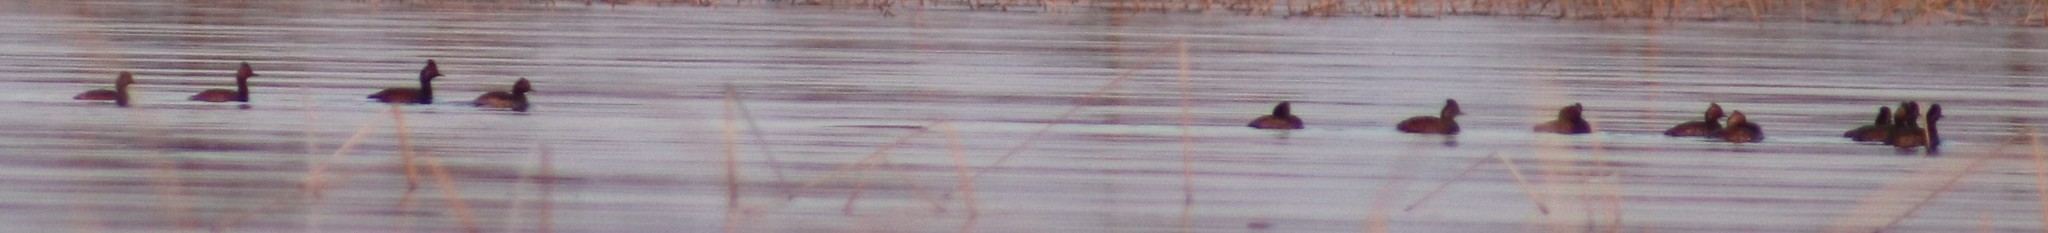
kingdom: Animalia
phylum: Chordata
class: Aves
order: Podicipediformes
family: Podicipedidae
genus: Podiceps
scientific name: Podiceps nigricollis
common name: Black-necked grebe
